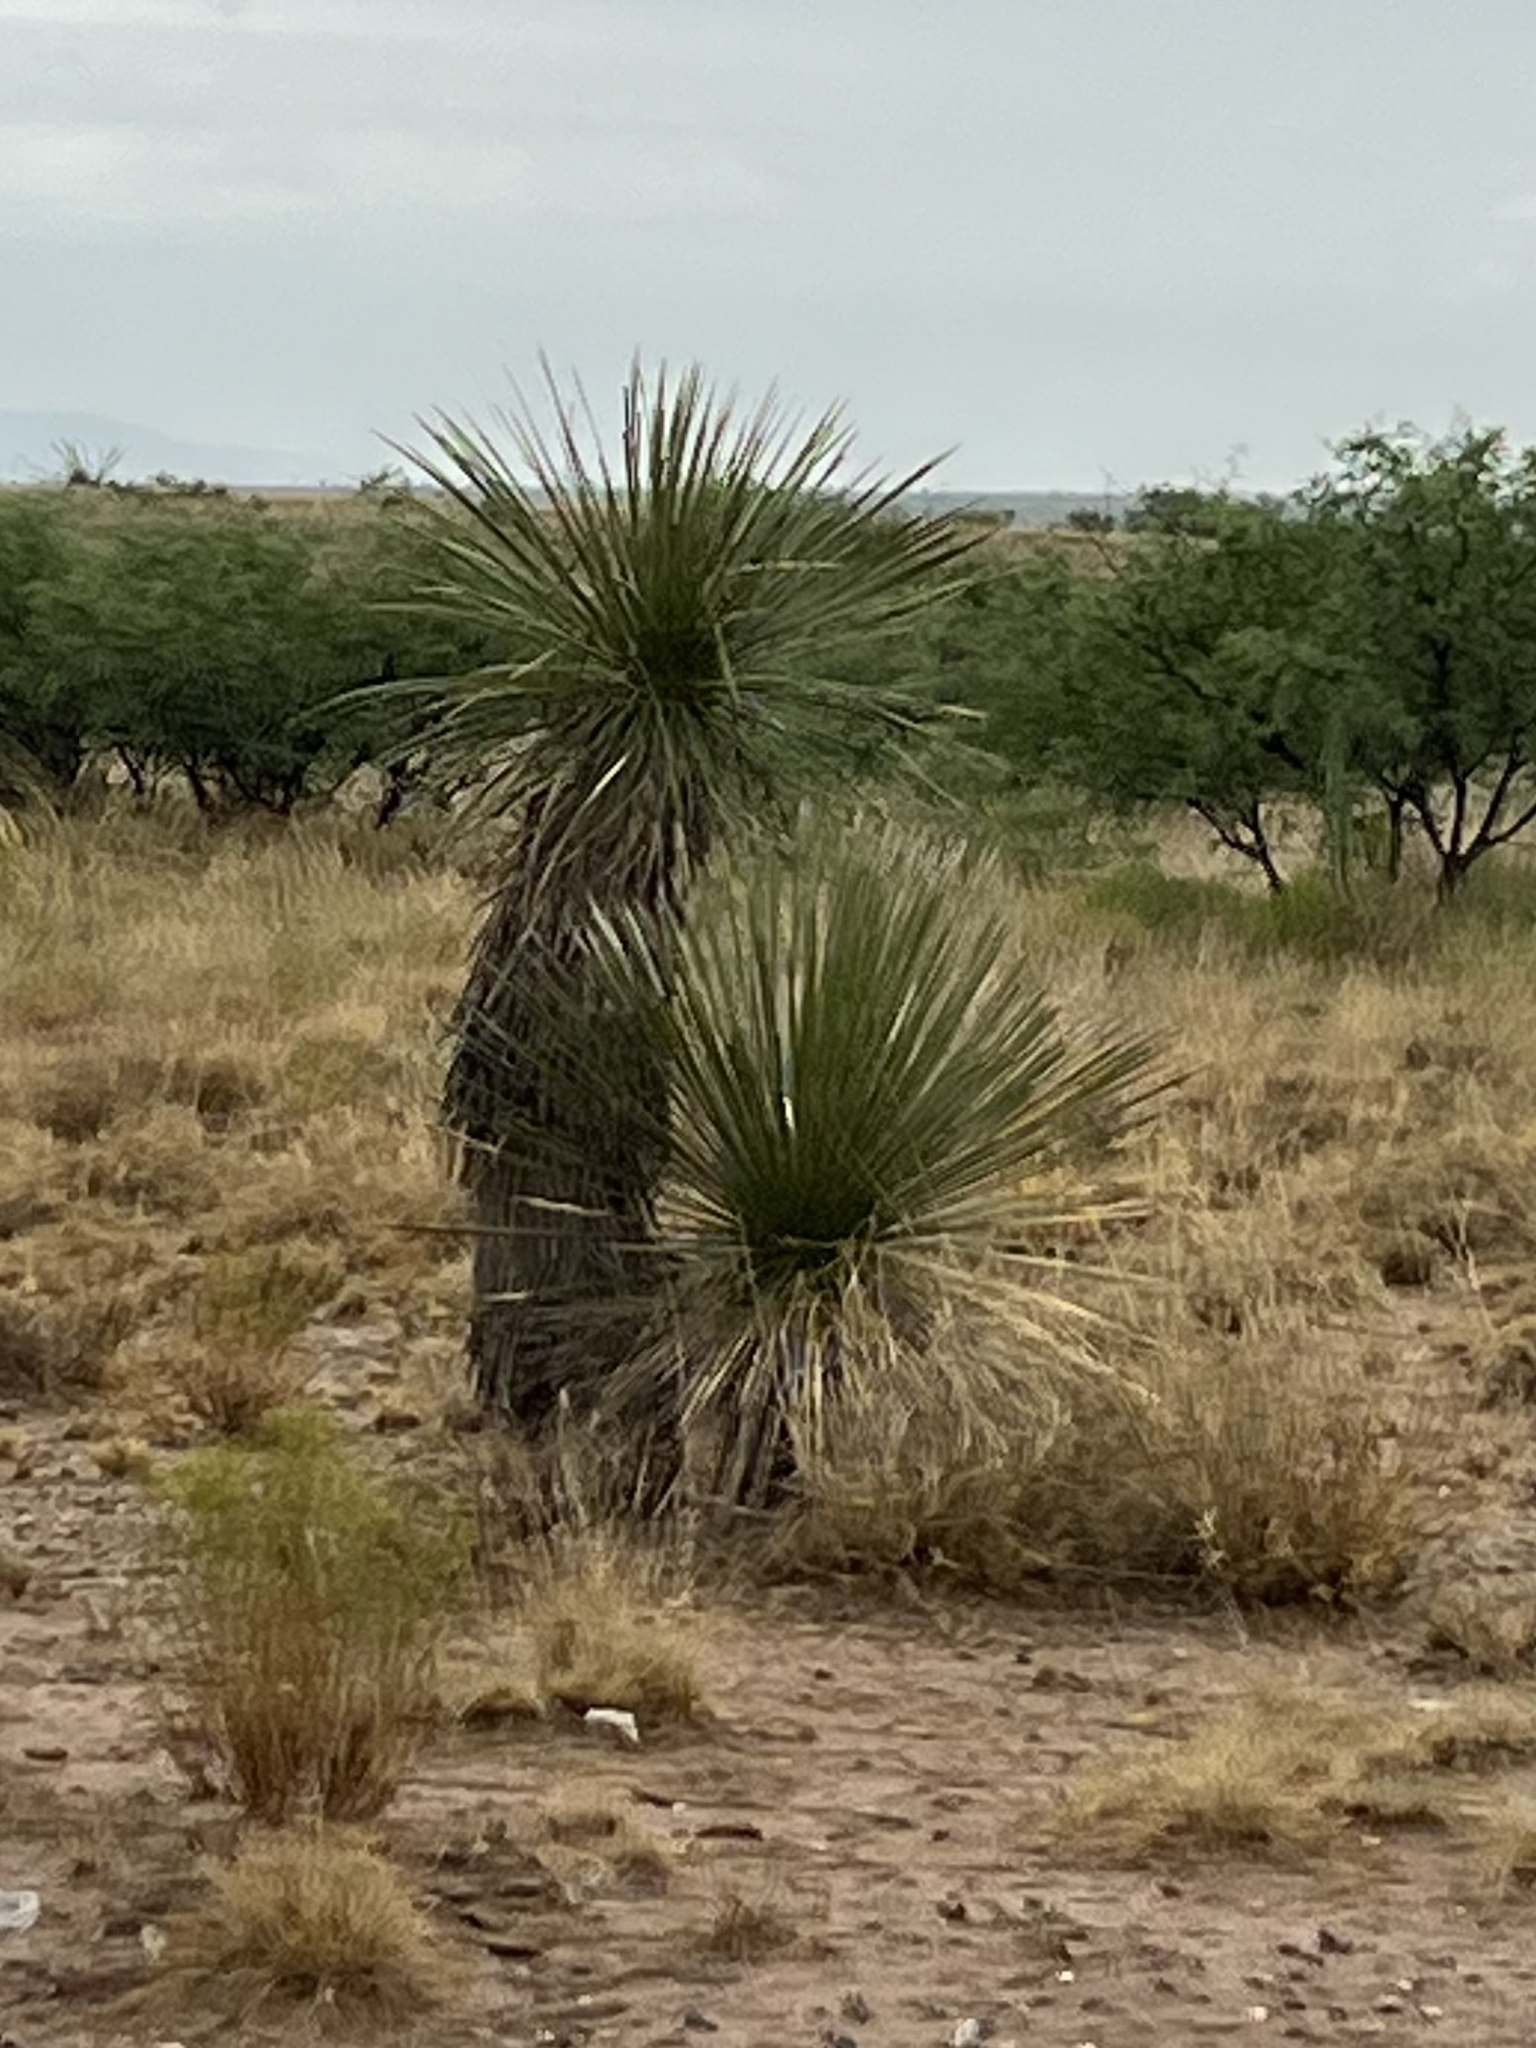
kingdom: Plantae
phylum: Tracheophyta
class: Liliopsida
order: Asparagales
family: Asparagaceae
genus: Yucca
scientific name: Yucca elata
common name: Palmella
